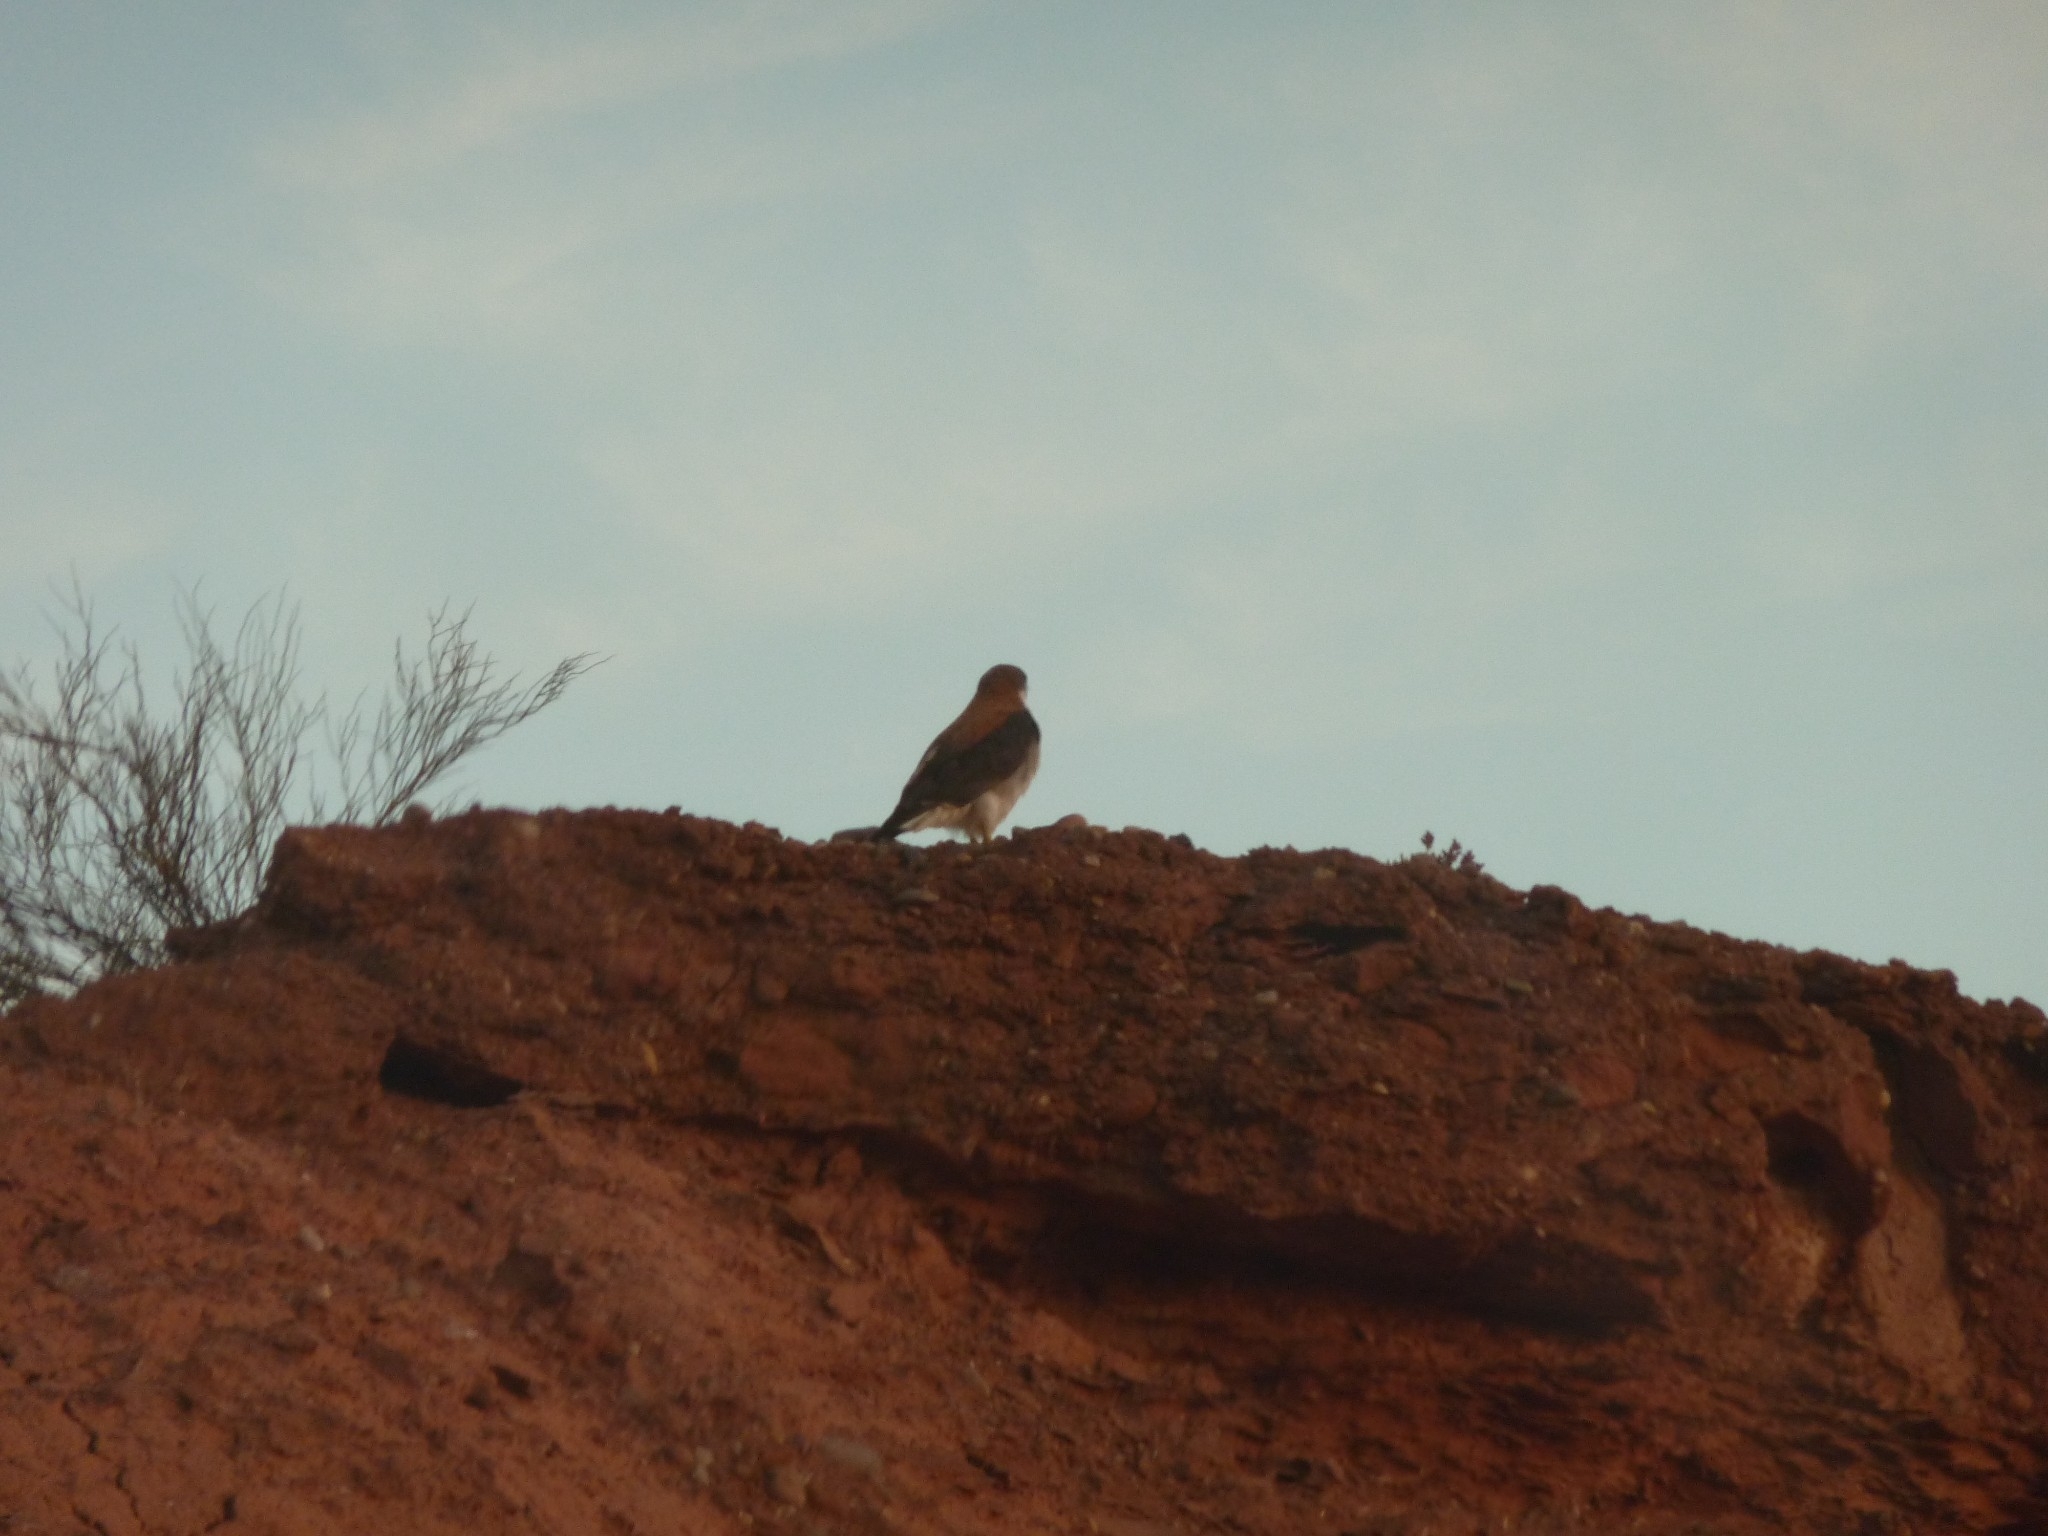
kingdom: Animalia
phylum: Chordata
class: Aves
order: Accipitriformes
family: Accipitridae
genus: Buteo
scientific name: Buteo polyosoma
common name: Variable hawk
